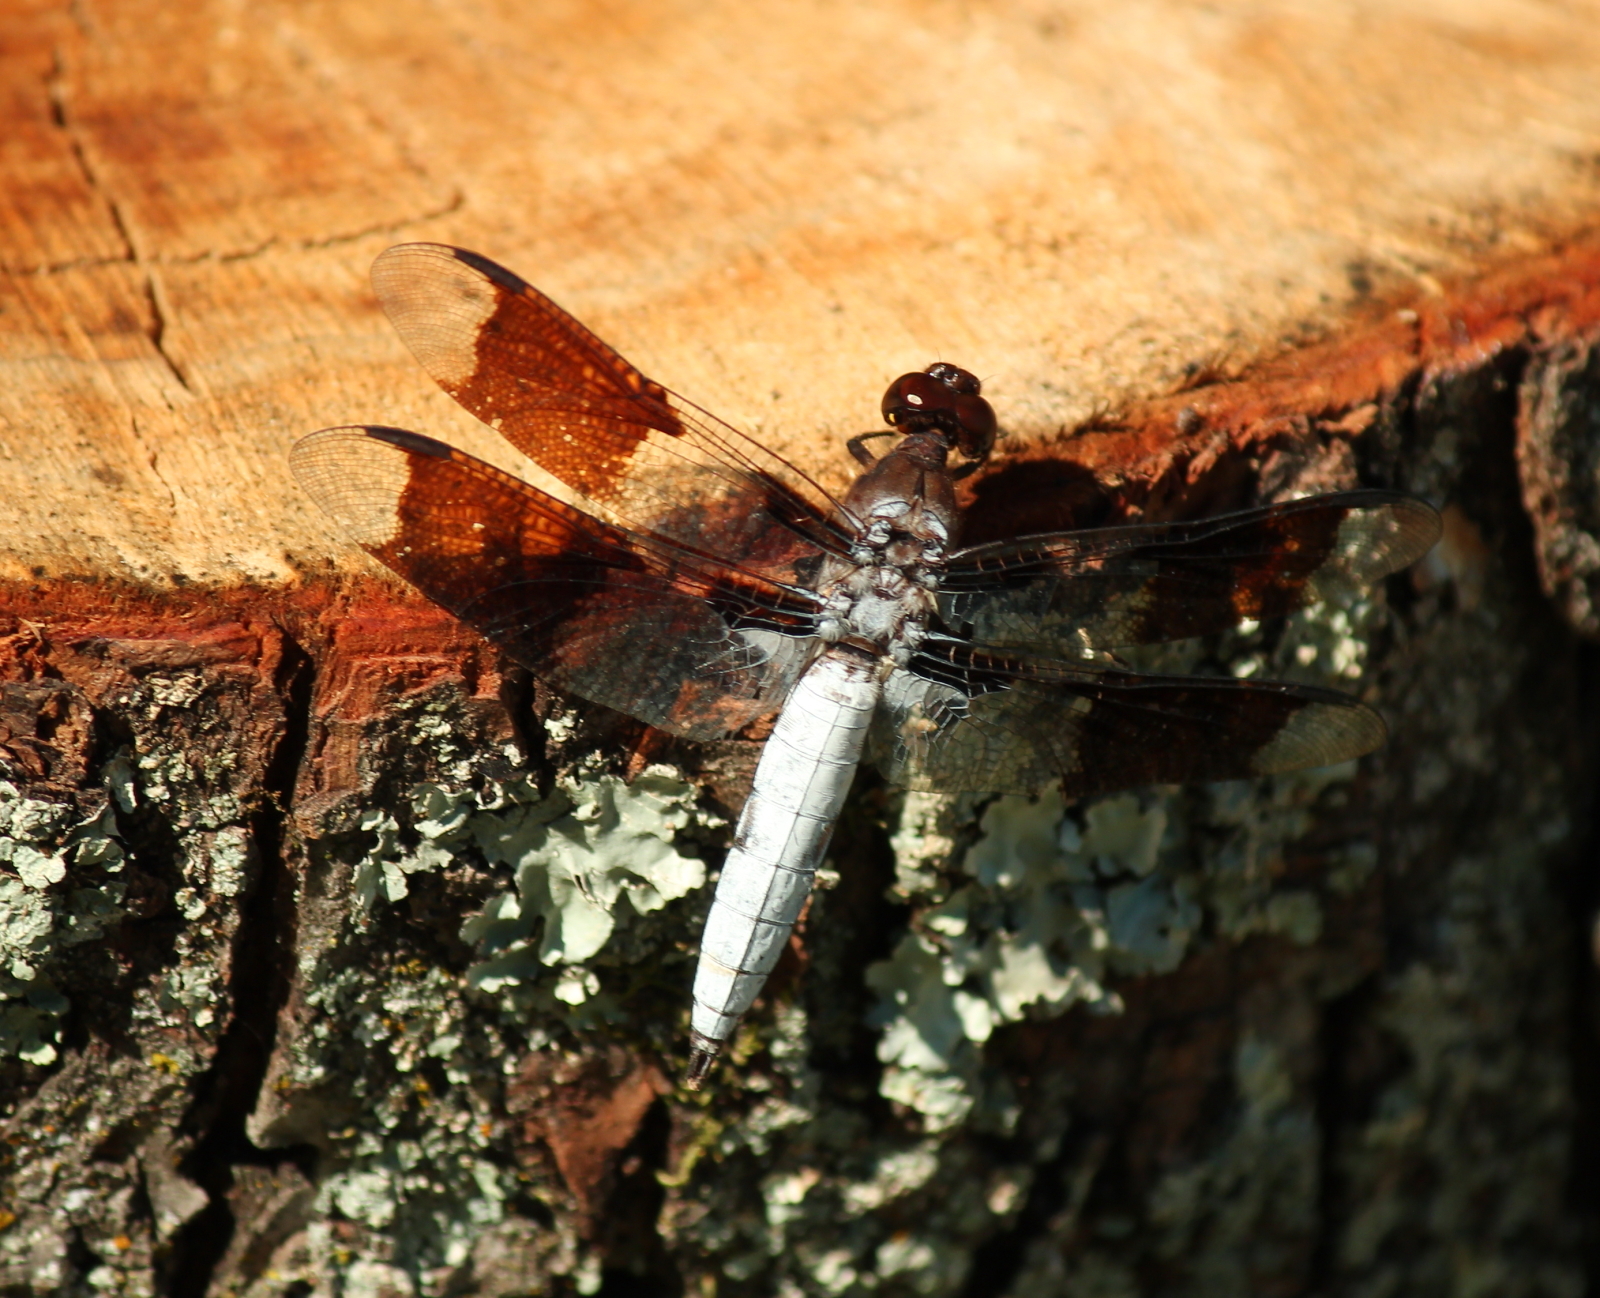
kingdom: Animalia
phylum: Arthropoda
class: Insecta
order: Odonata
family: Libellulidae
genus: Plathemis
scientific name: Plathemis lydia
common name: Common whitetail
